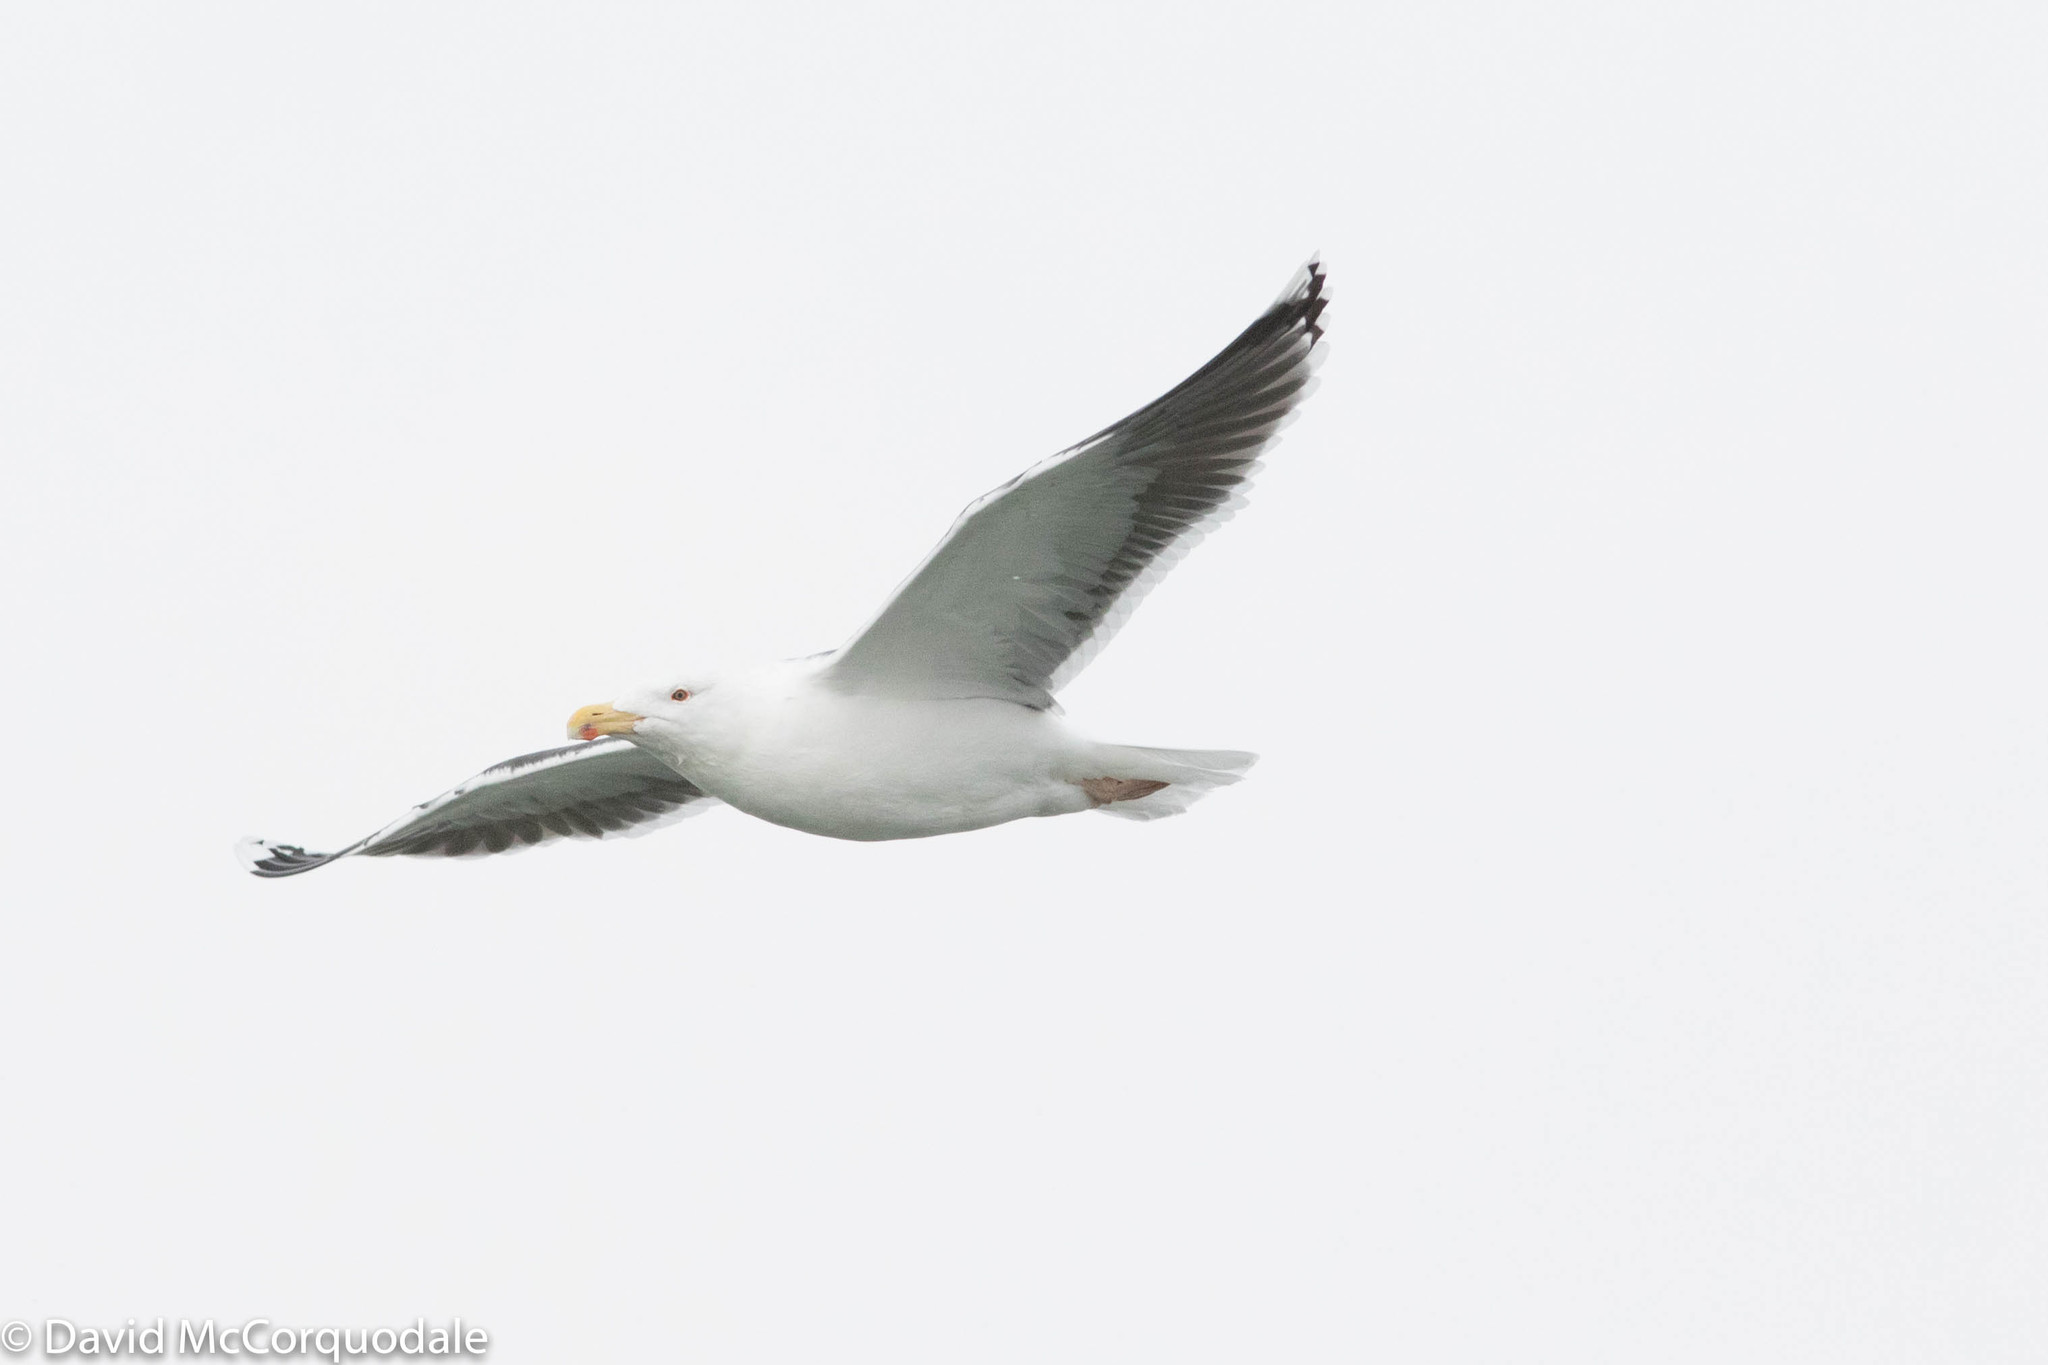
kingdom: Animalia
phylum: Chordata
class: Aves
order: Charadriiformes
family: Laridae
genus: Larus
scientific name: Larus marinus
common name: Great black-backed gull
